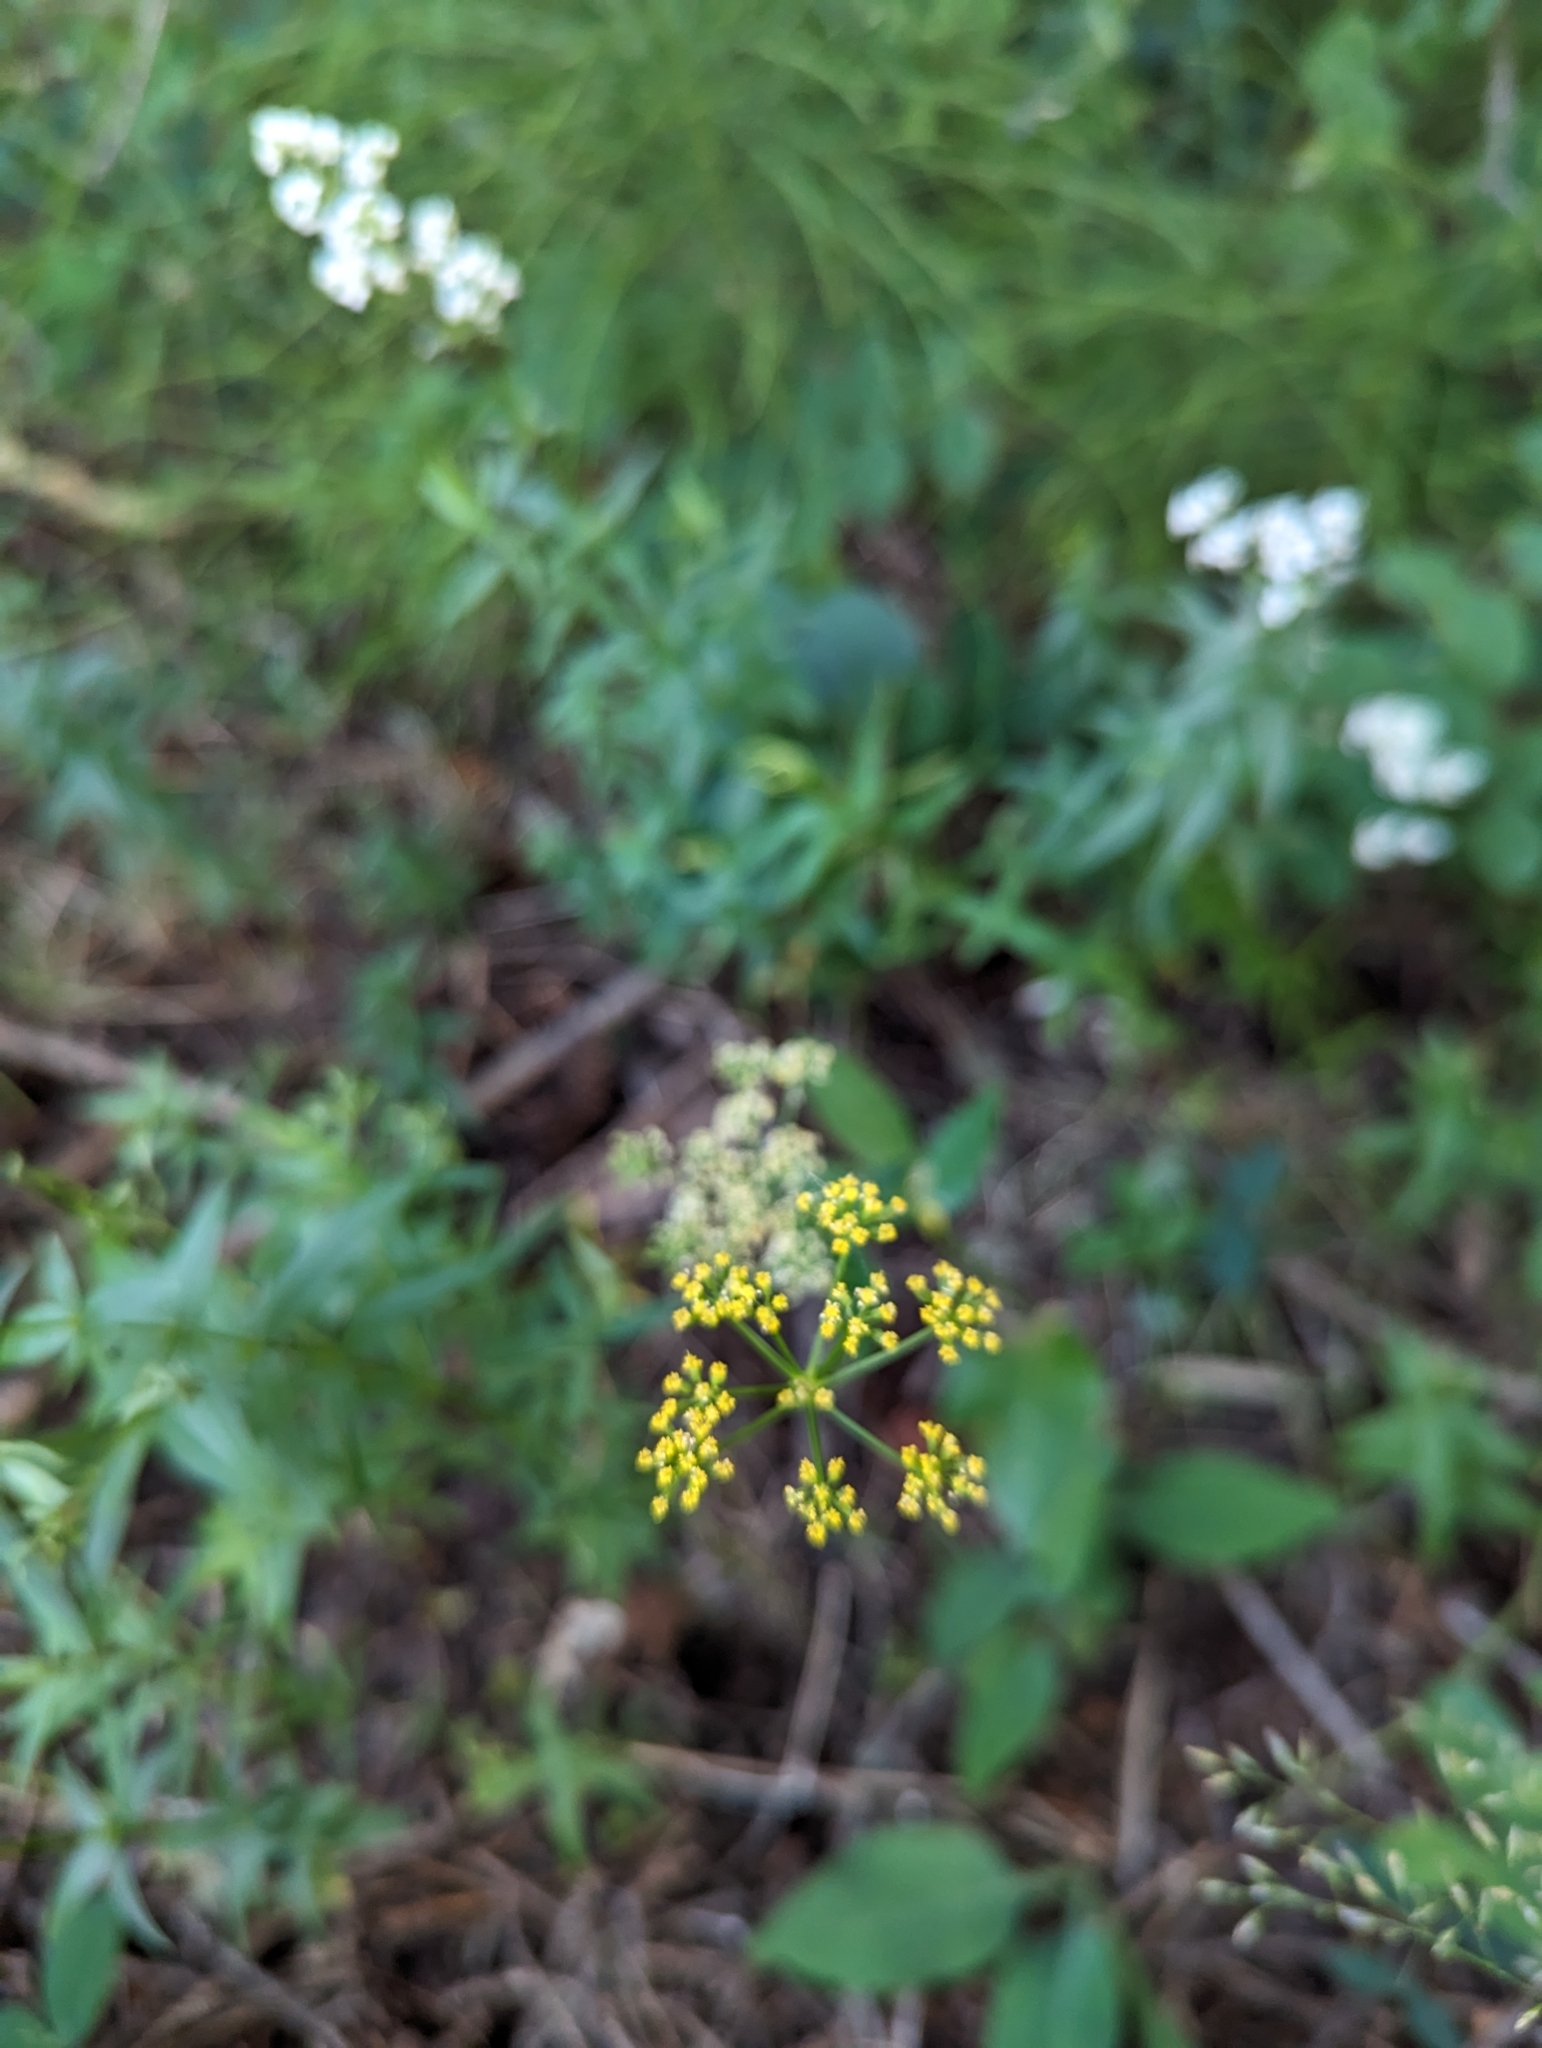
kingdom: Plantae
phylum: Tracheophyta
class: Magnoliopsida
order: Apiales
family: Apiaceae
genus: Zizia
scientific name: Zizia aptera
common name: Heart-leaved alexanders
